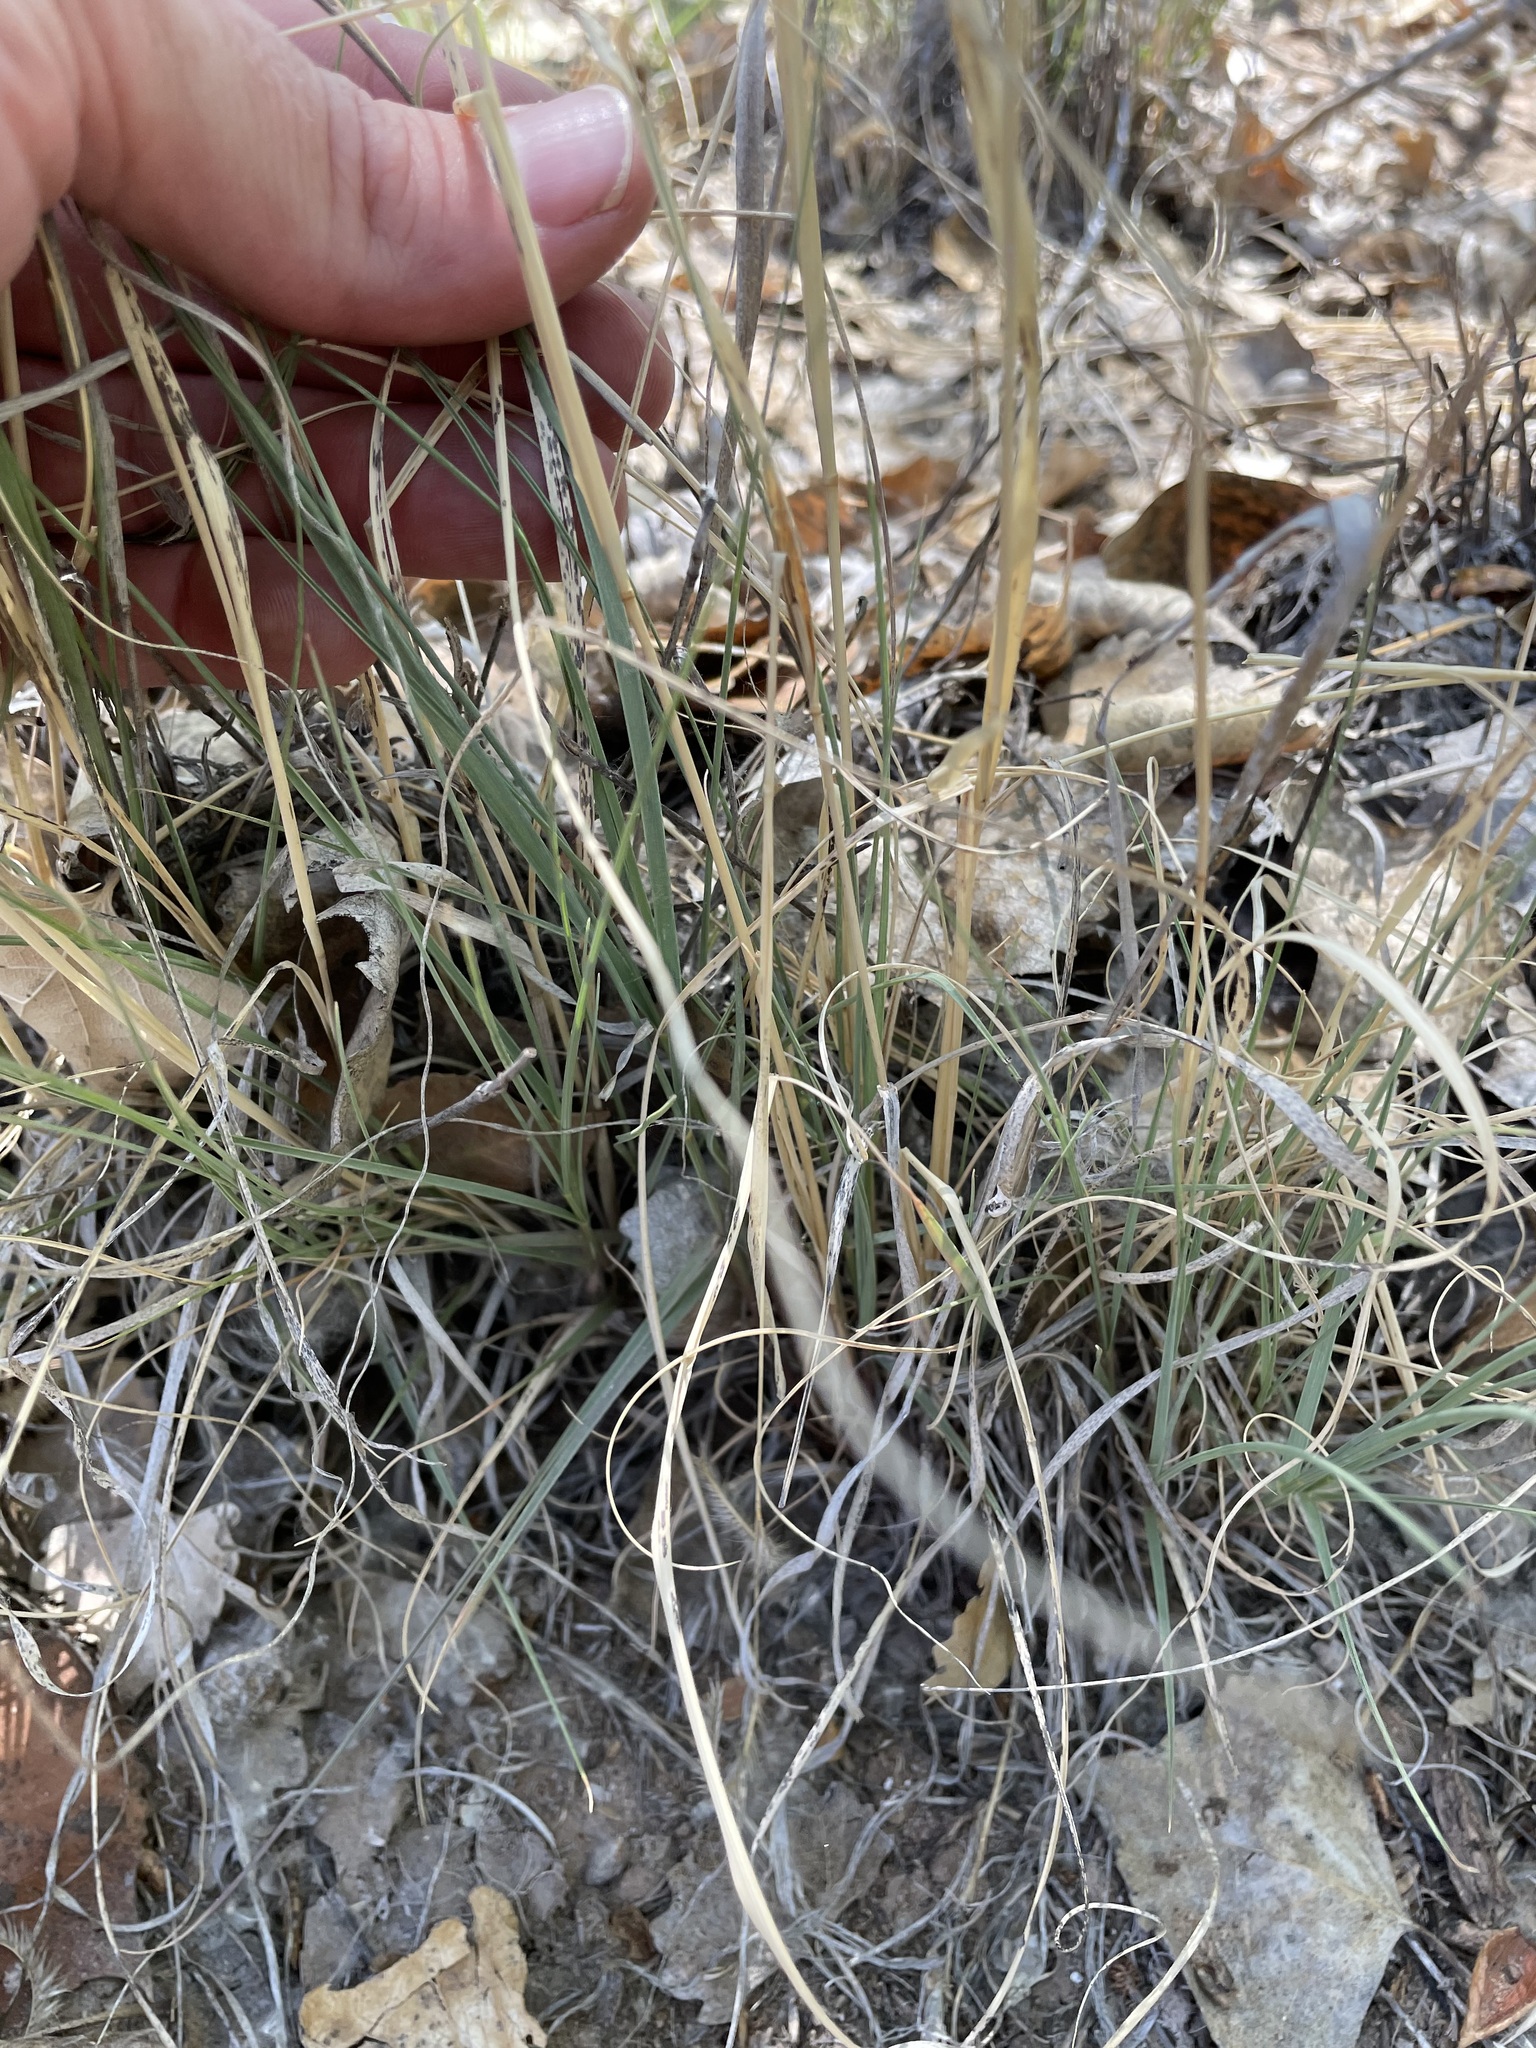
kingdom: Plantae
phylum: Tracheophyta
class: Liliopsida
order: Poales
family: Poaceae
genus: Bouteloua
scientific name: Bouteloua gracilis
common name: Blue grama
